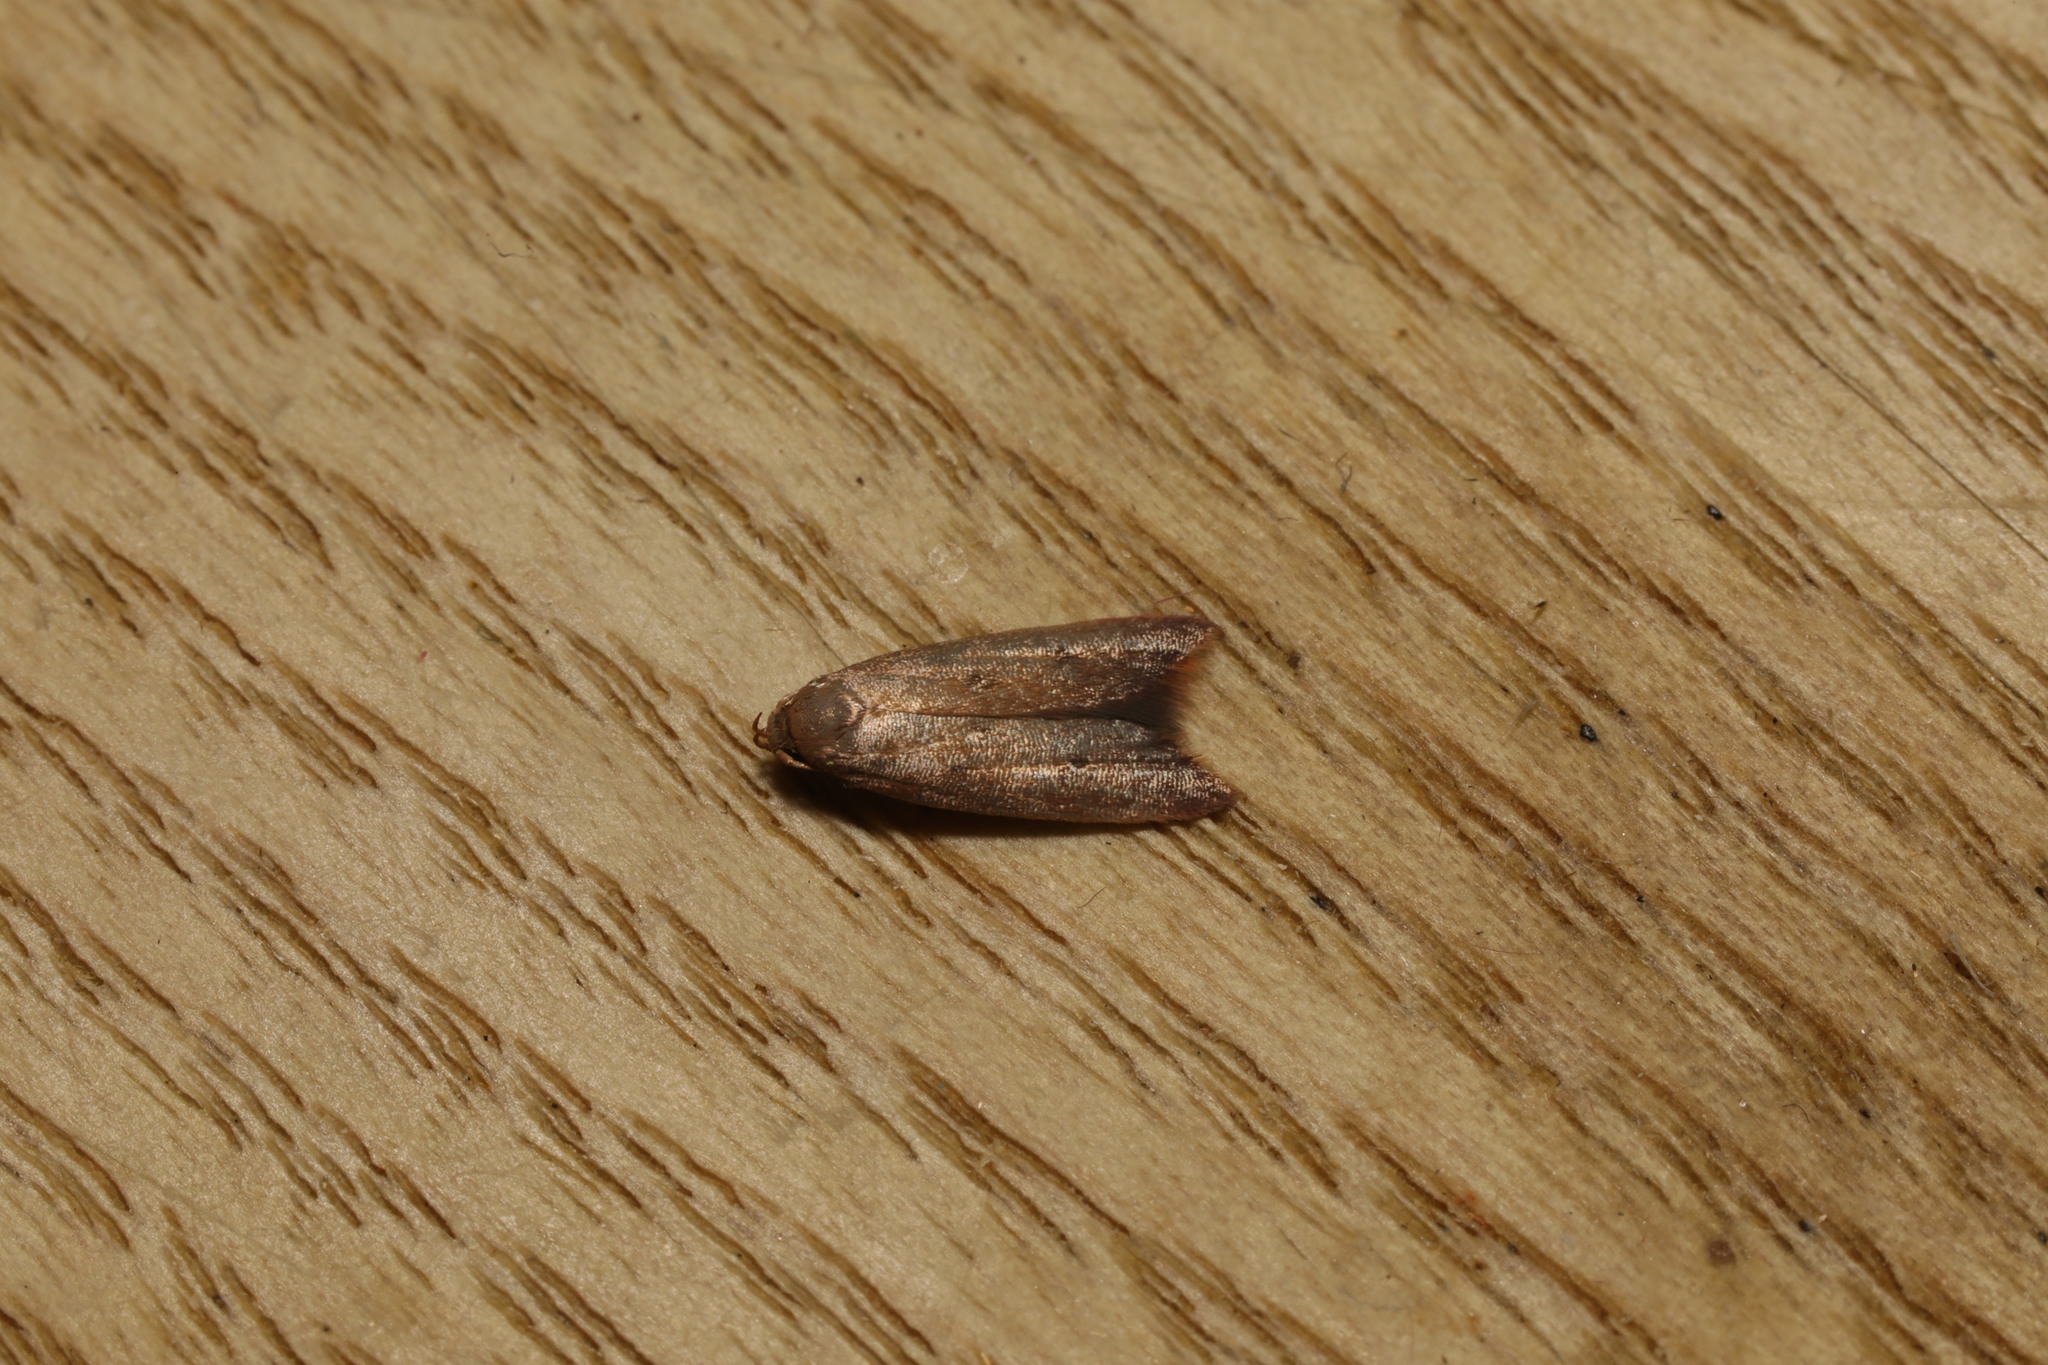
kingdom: Animalia
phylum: Arthropoda
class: Insecta
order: Lepidoptera
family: Oecophoridae
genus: Tachystola
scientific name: Tachystola acroxantha
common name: Ruddy streak
